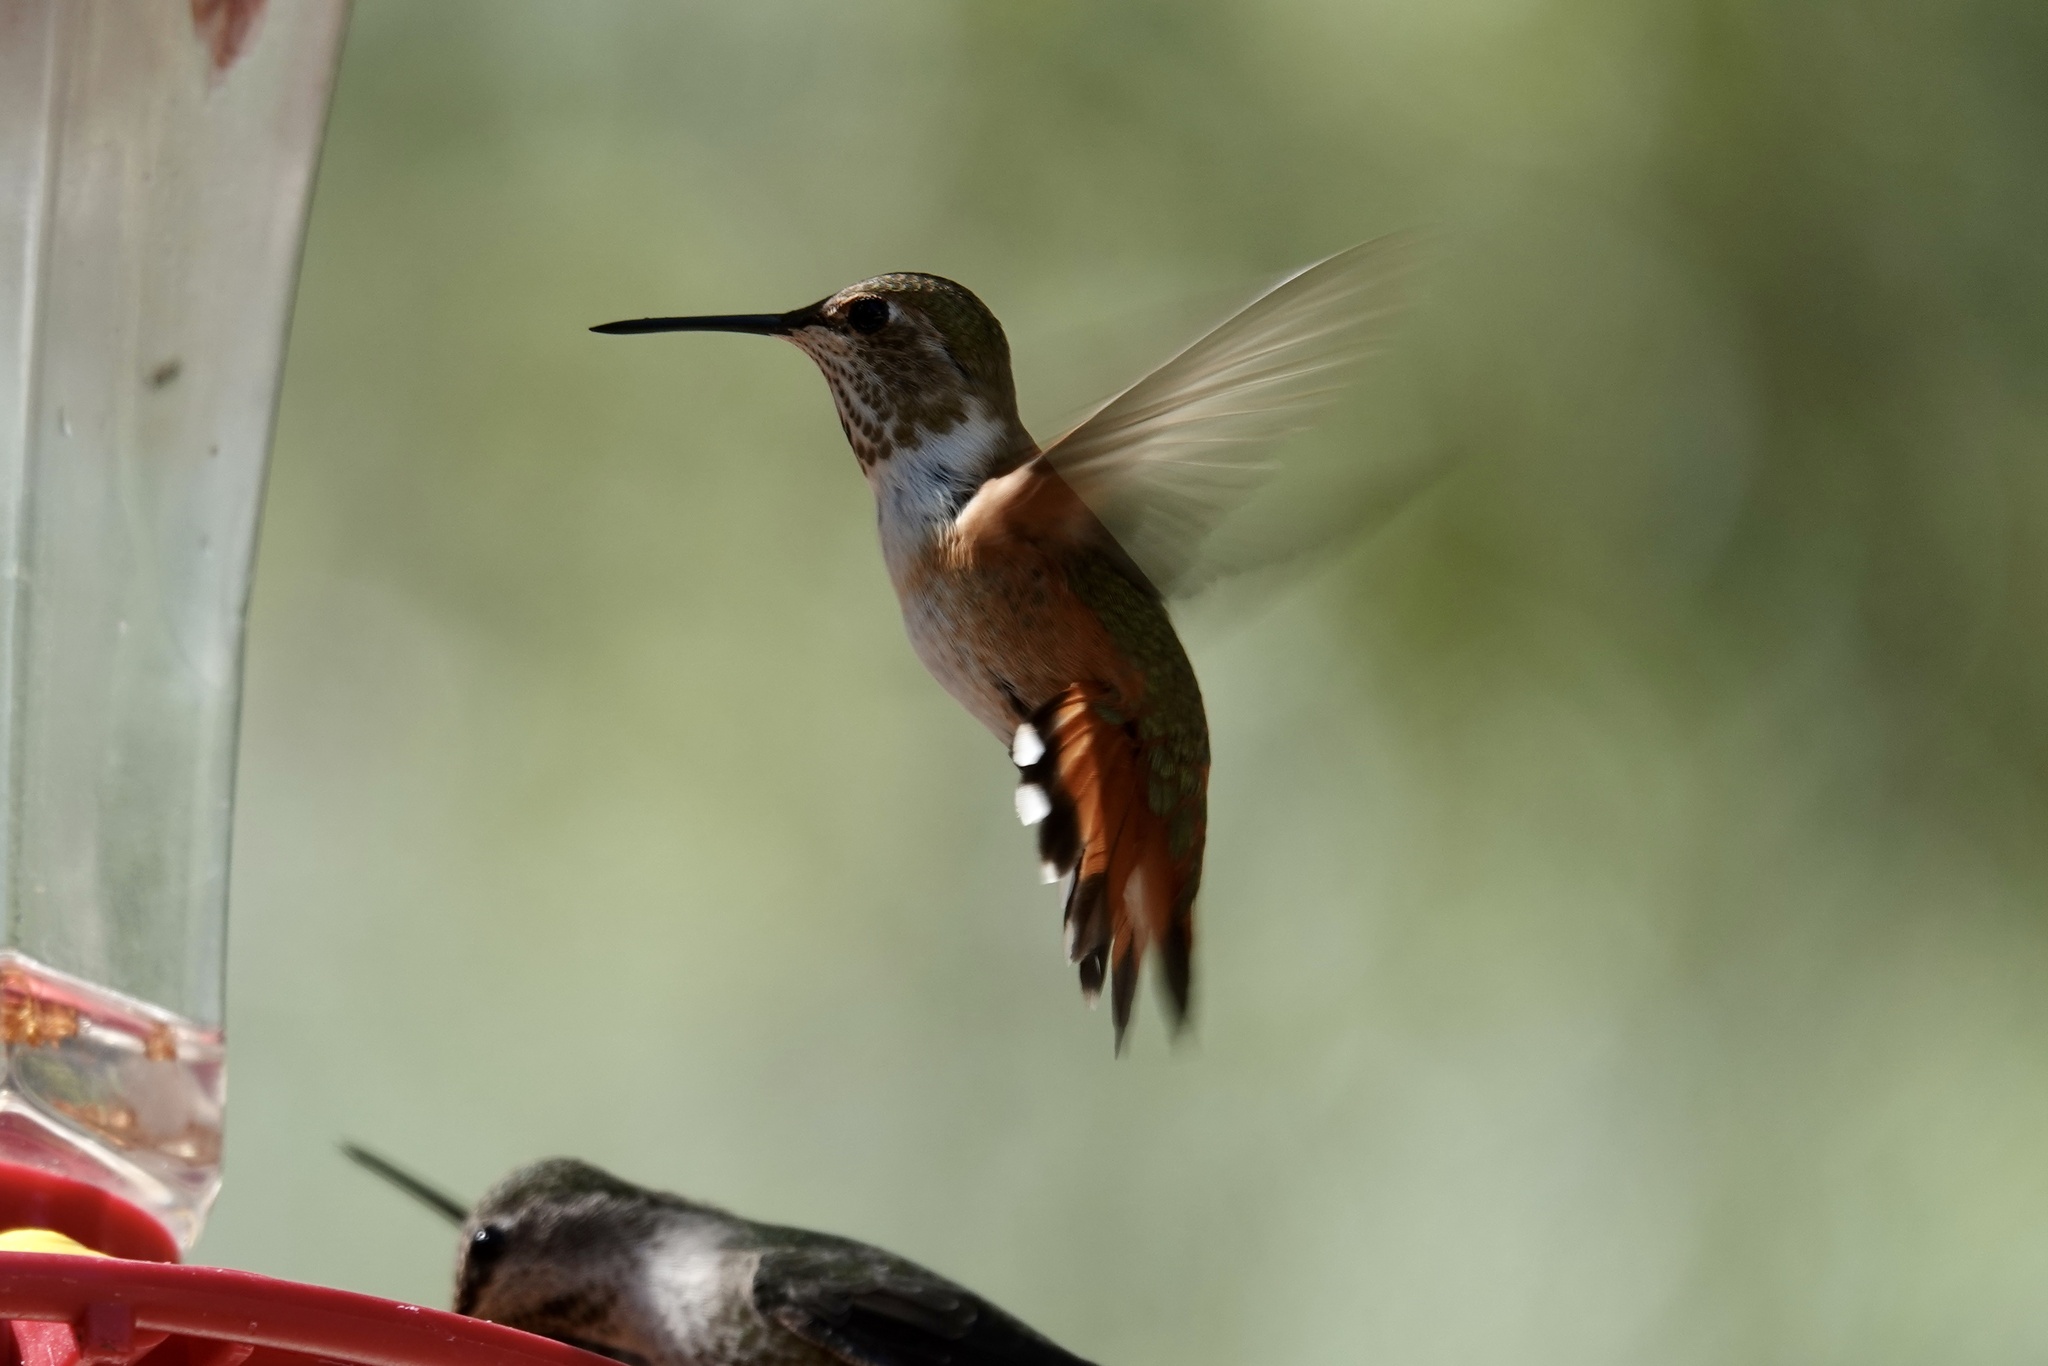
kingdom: Animalia
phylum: Chordata
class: Aves
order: Apodiformes
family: Trochilidae
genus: Selasphorus
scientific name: Selasphorus rufus
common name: Rufous hummingbird
